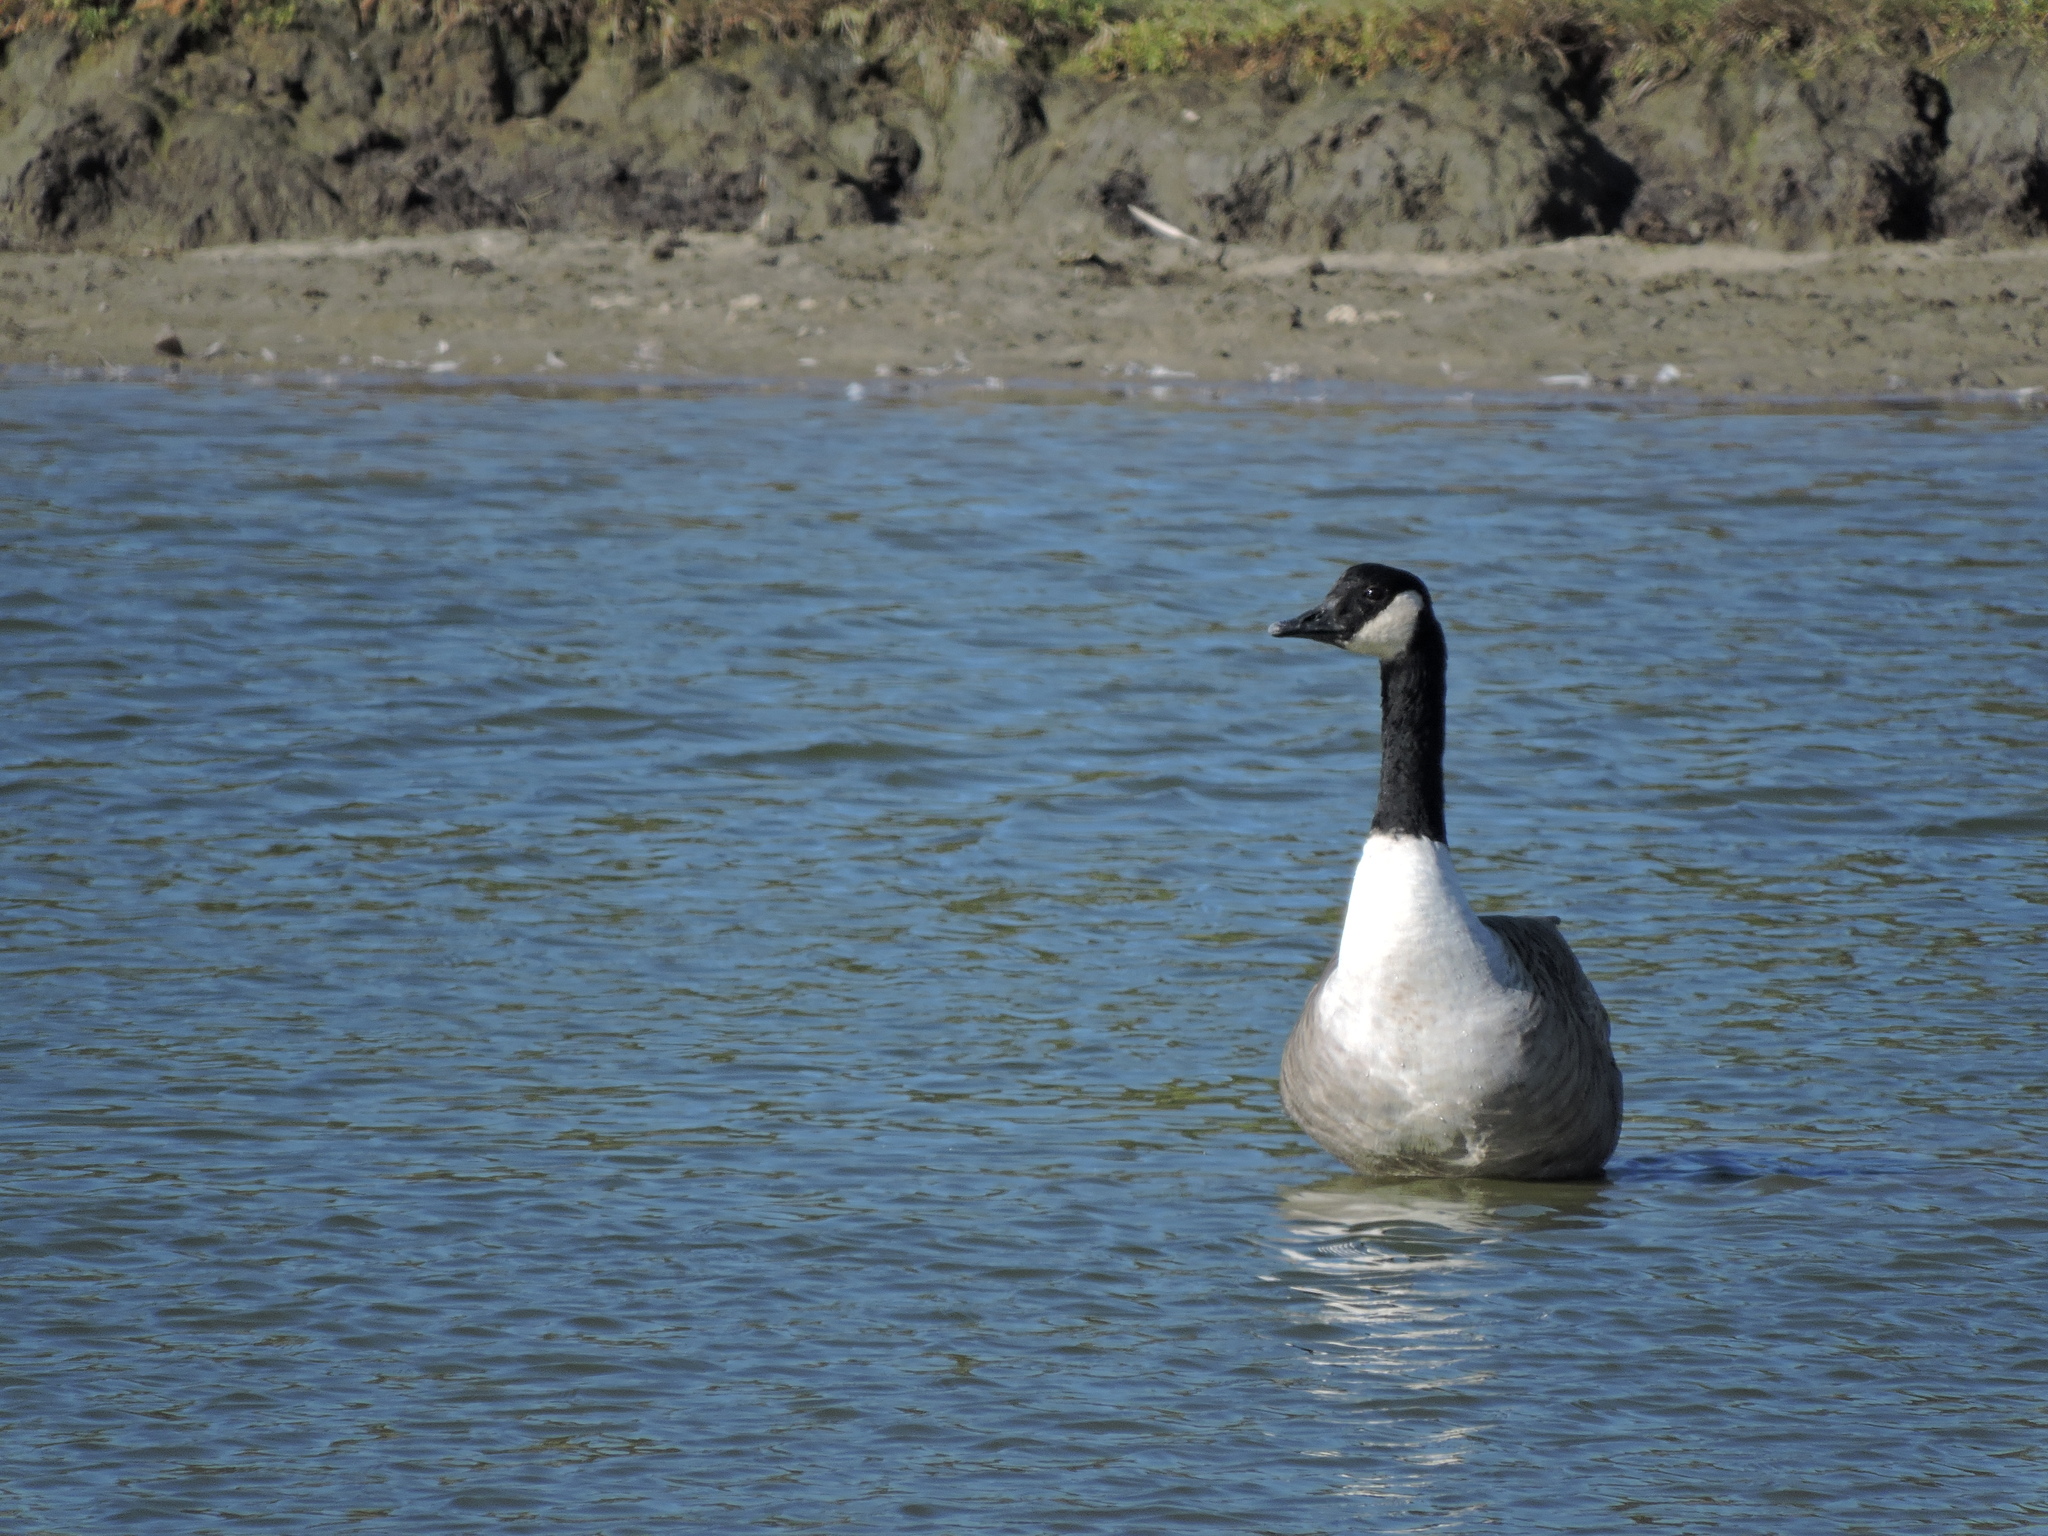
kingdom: Animalia
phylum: Chordata
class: Aves
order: Anseriformes
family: Anatidae
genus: Branta
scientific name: Branta canadensis
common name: Canada goose
